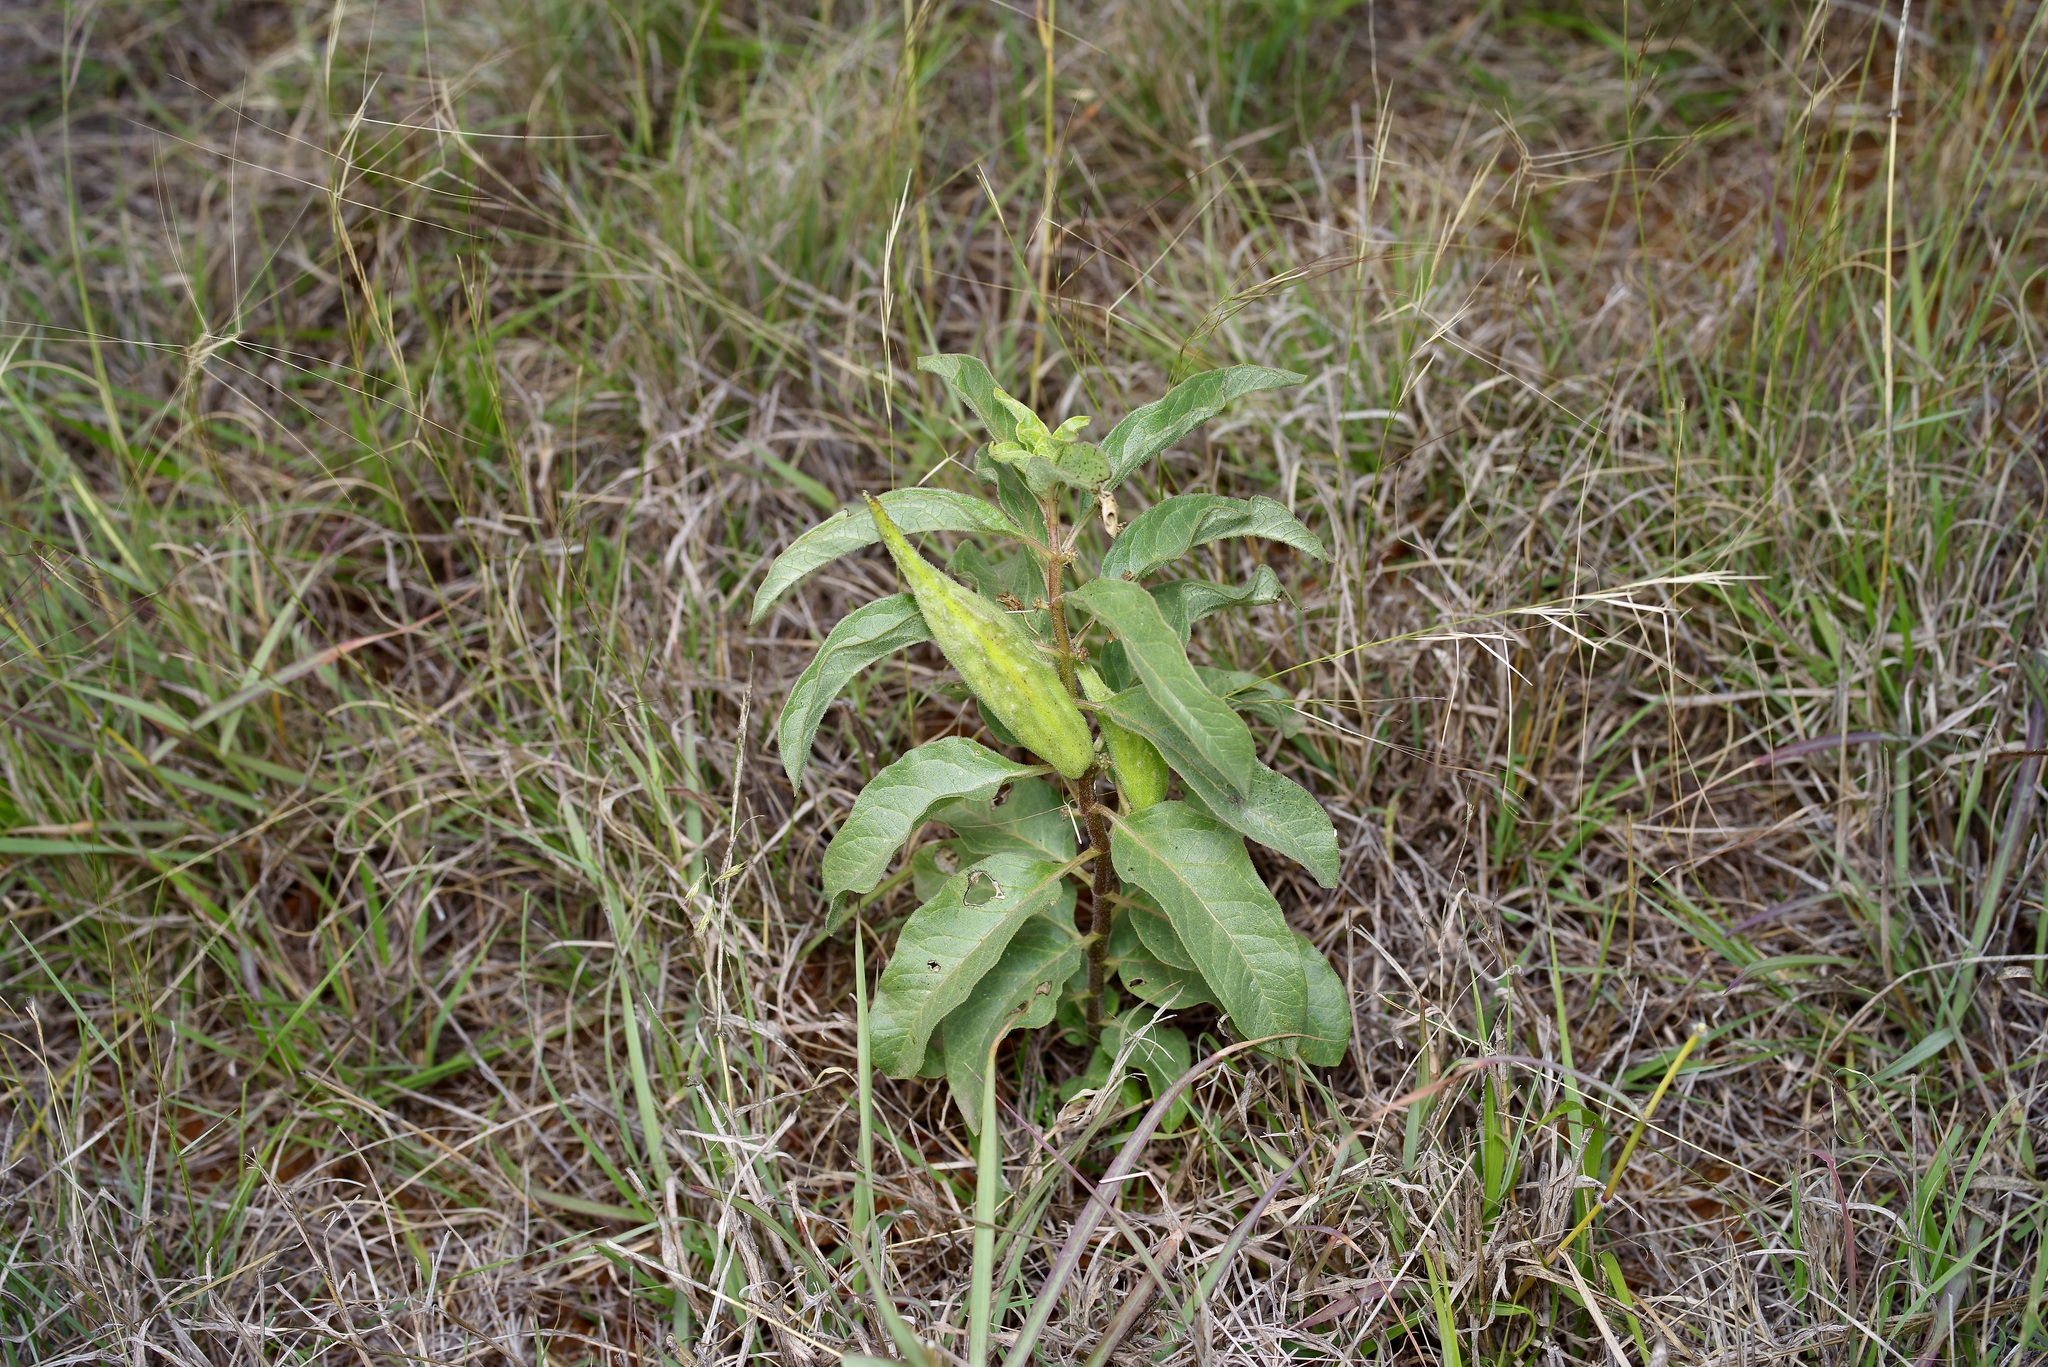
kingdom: Plantae
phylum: Tracheophyta
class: Magnoliopsida
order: Gentianales
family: Apocynaceae
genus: Asclepias
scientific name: Asclepias oenotheroides
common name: Zizotes milkweed
